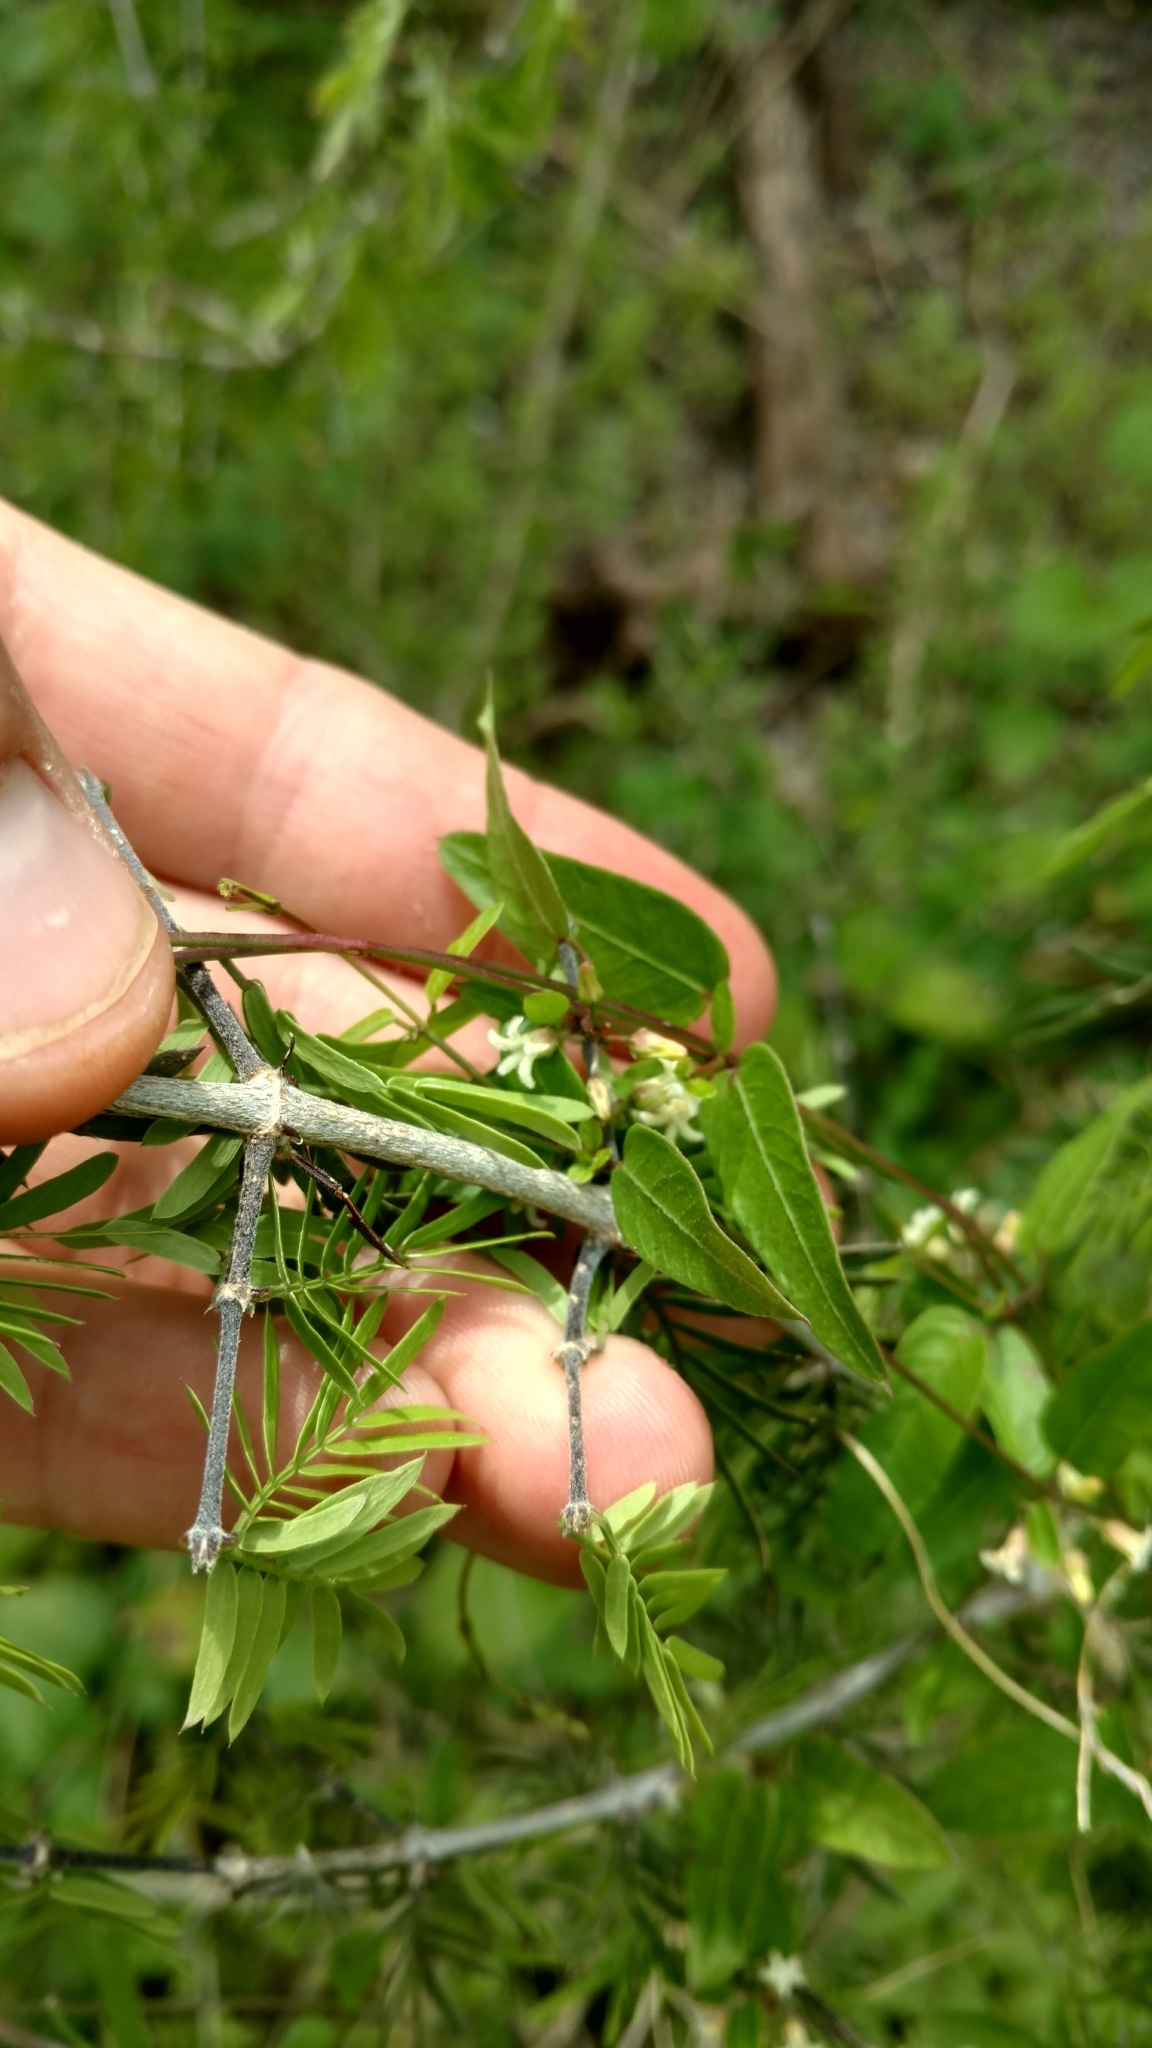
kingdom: Plantae
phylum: Tracheophyta
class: Magnoliopsida
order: Gentianales
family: Apocynaceae
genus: Metastelma
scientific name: Metastelma barbigerum
